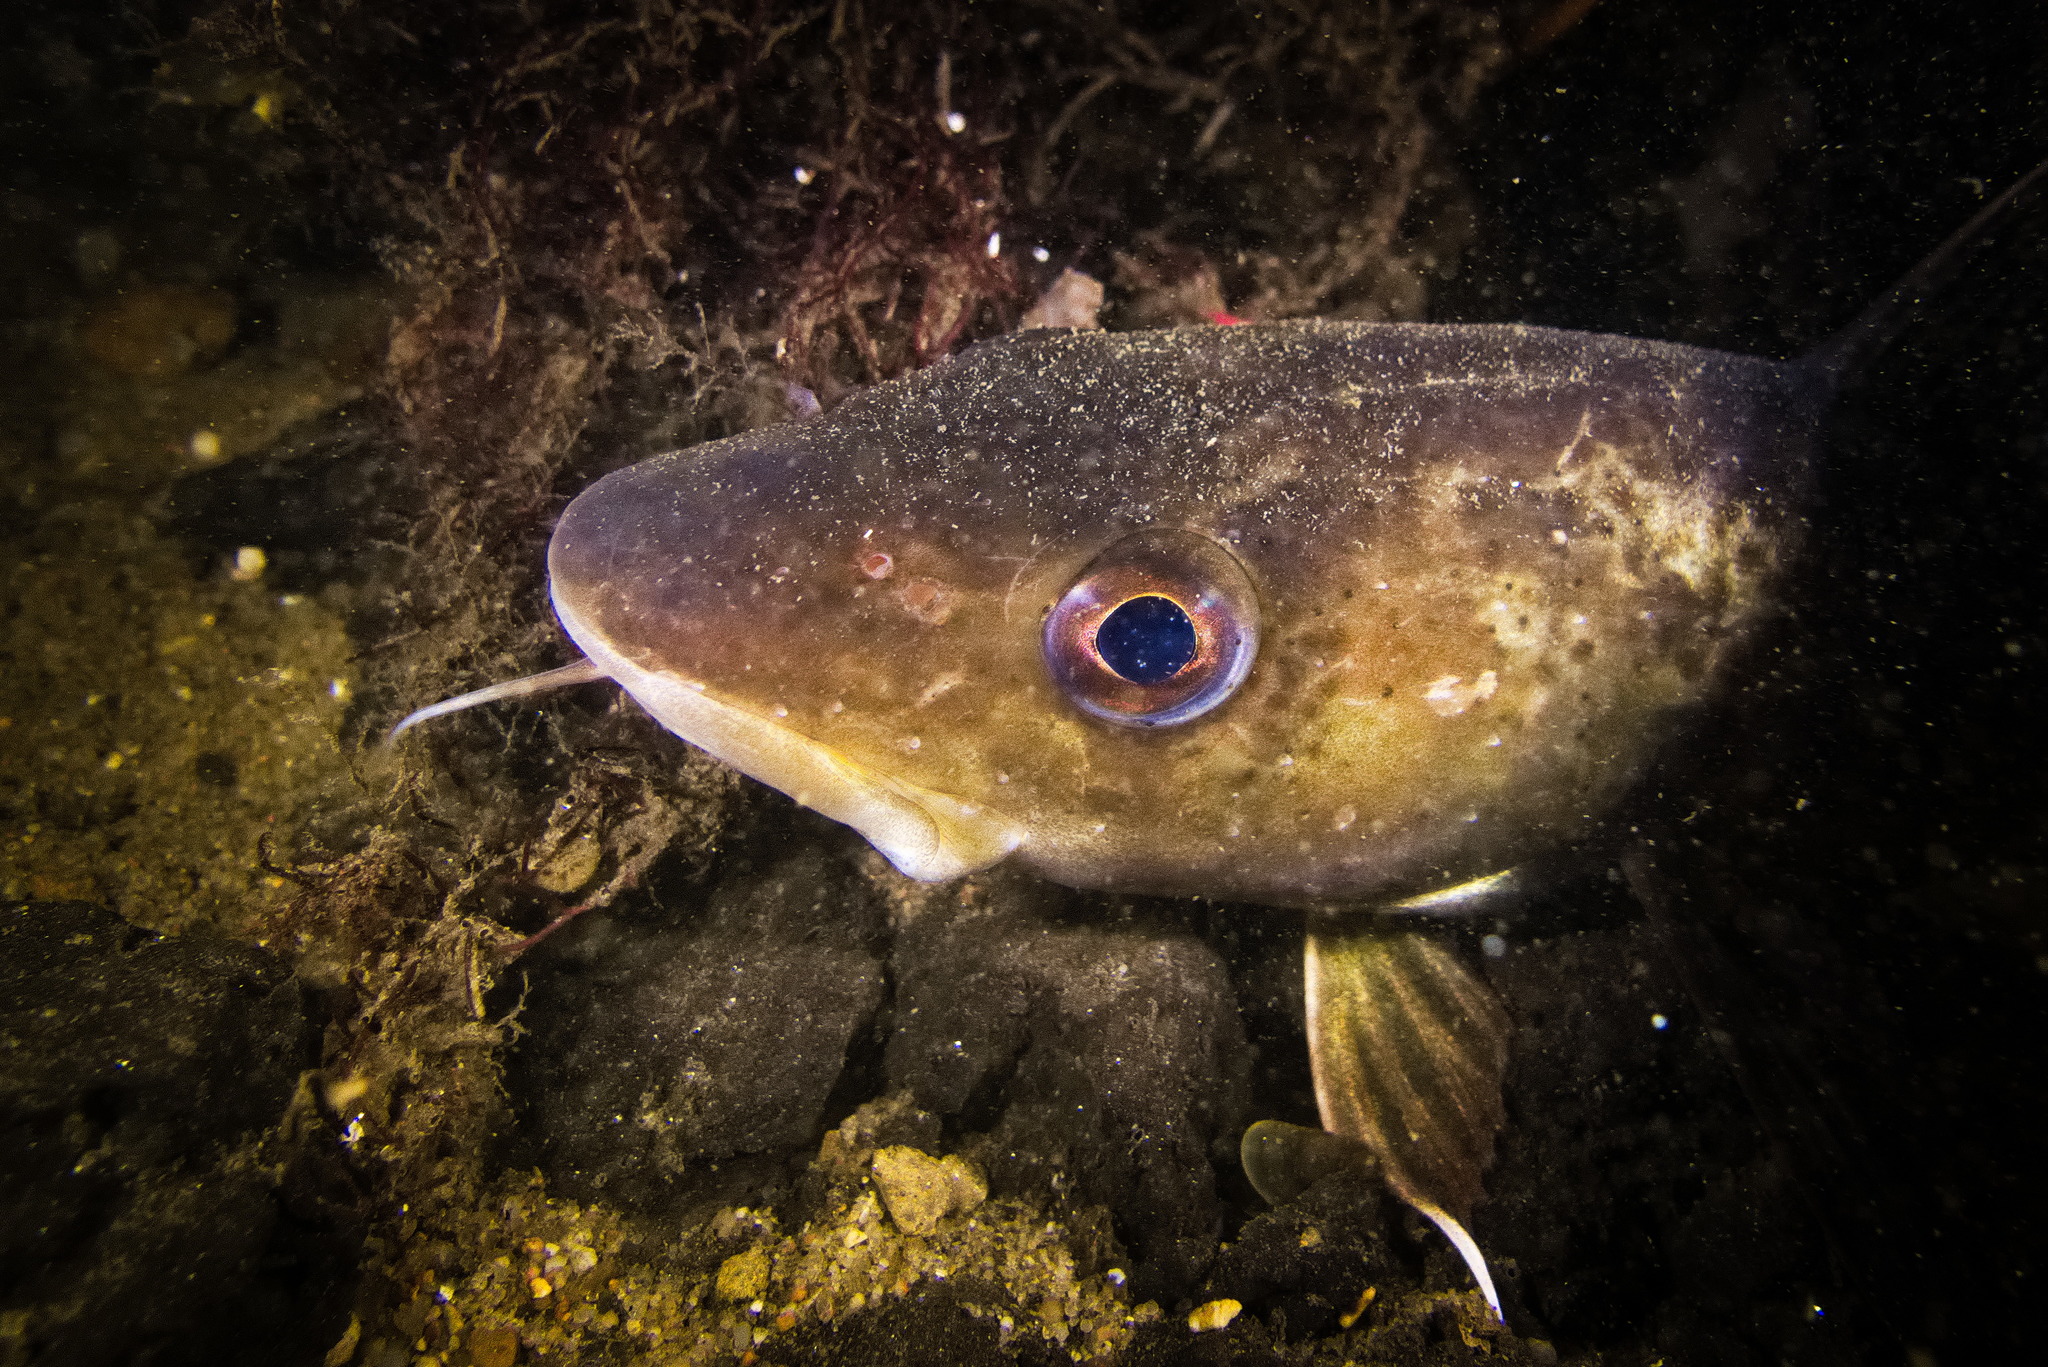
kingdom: Animalia
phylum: Chordata
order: Gadiformes
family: Gadidae
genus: Gadus
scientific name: Gadus morhua
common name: Atlantic cod
